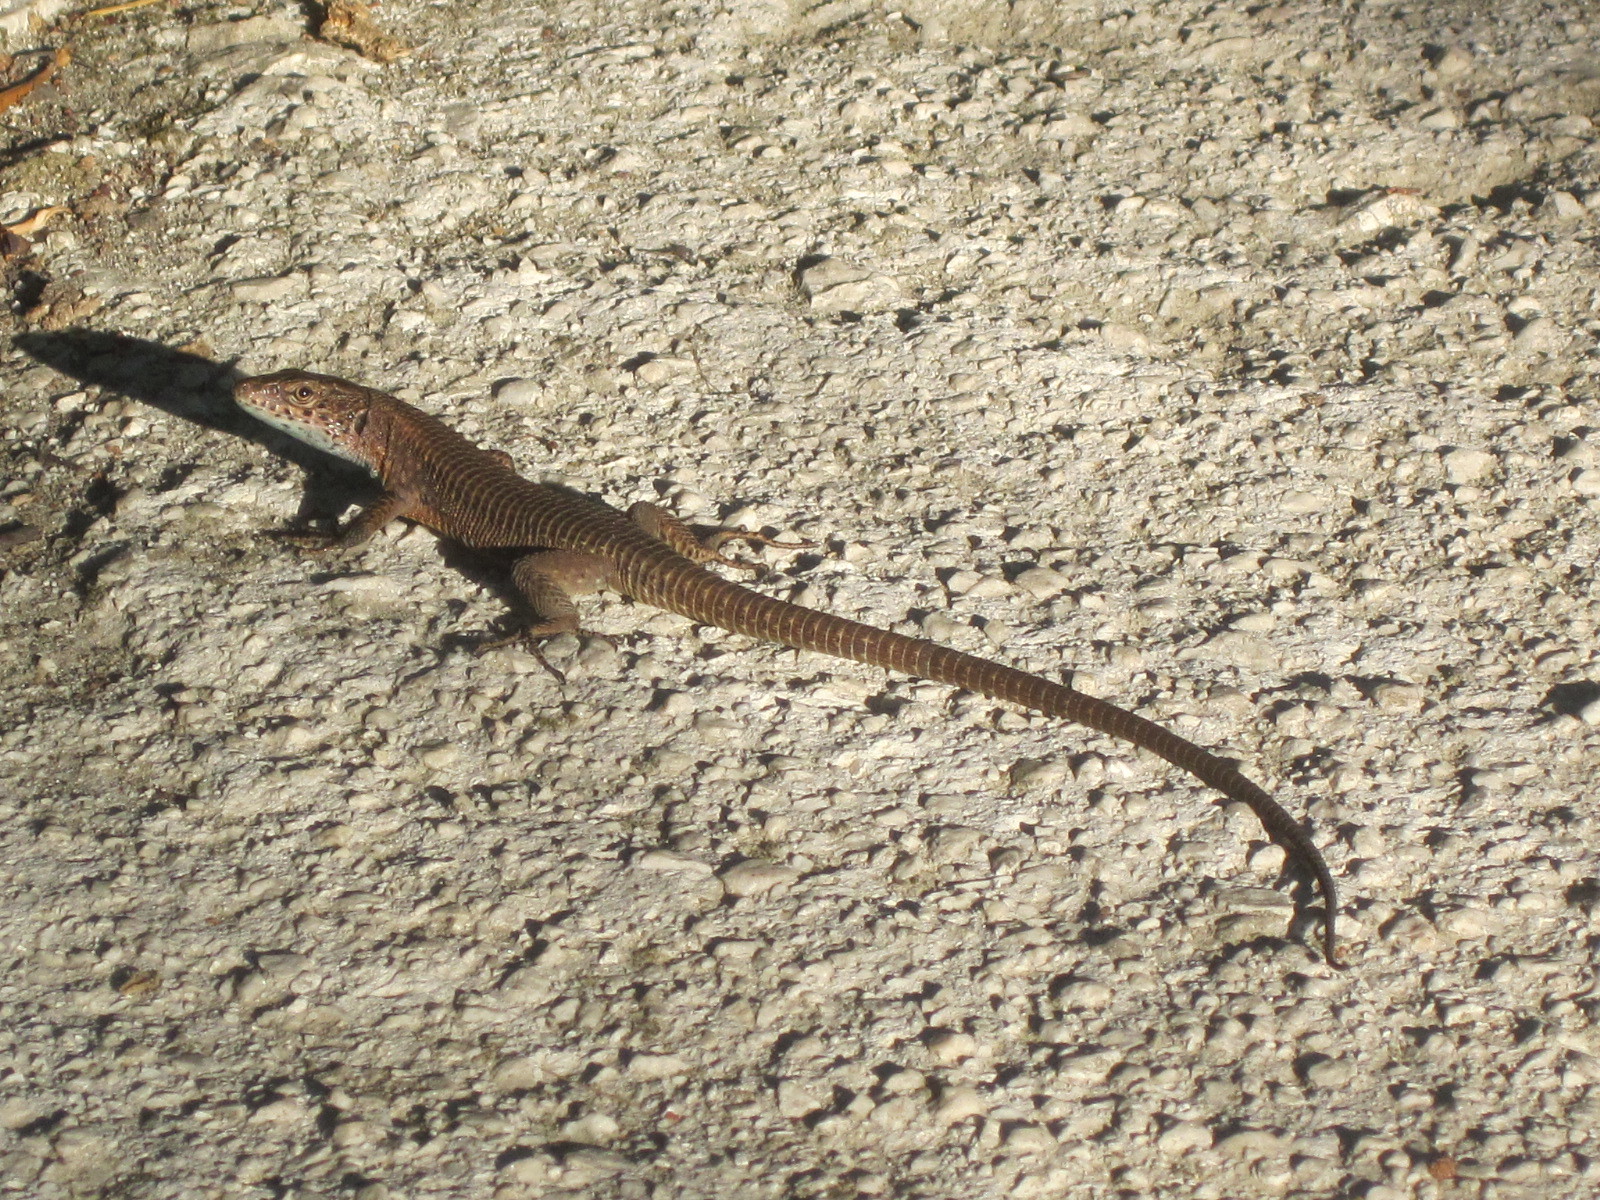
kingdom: Animalia
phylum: Chordata
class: Squamata
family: Lacertidae
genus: Algyroides
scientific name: Algyroides nigropunctatus
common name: Blue-throated keeled lizard
